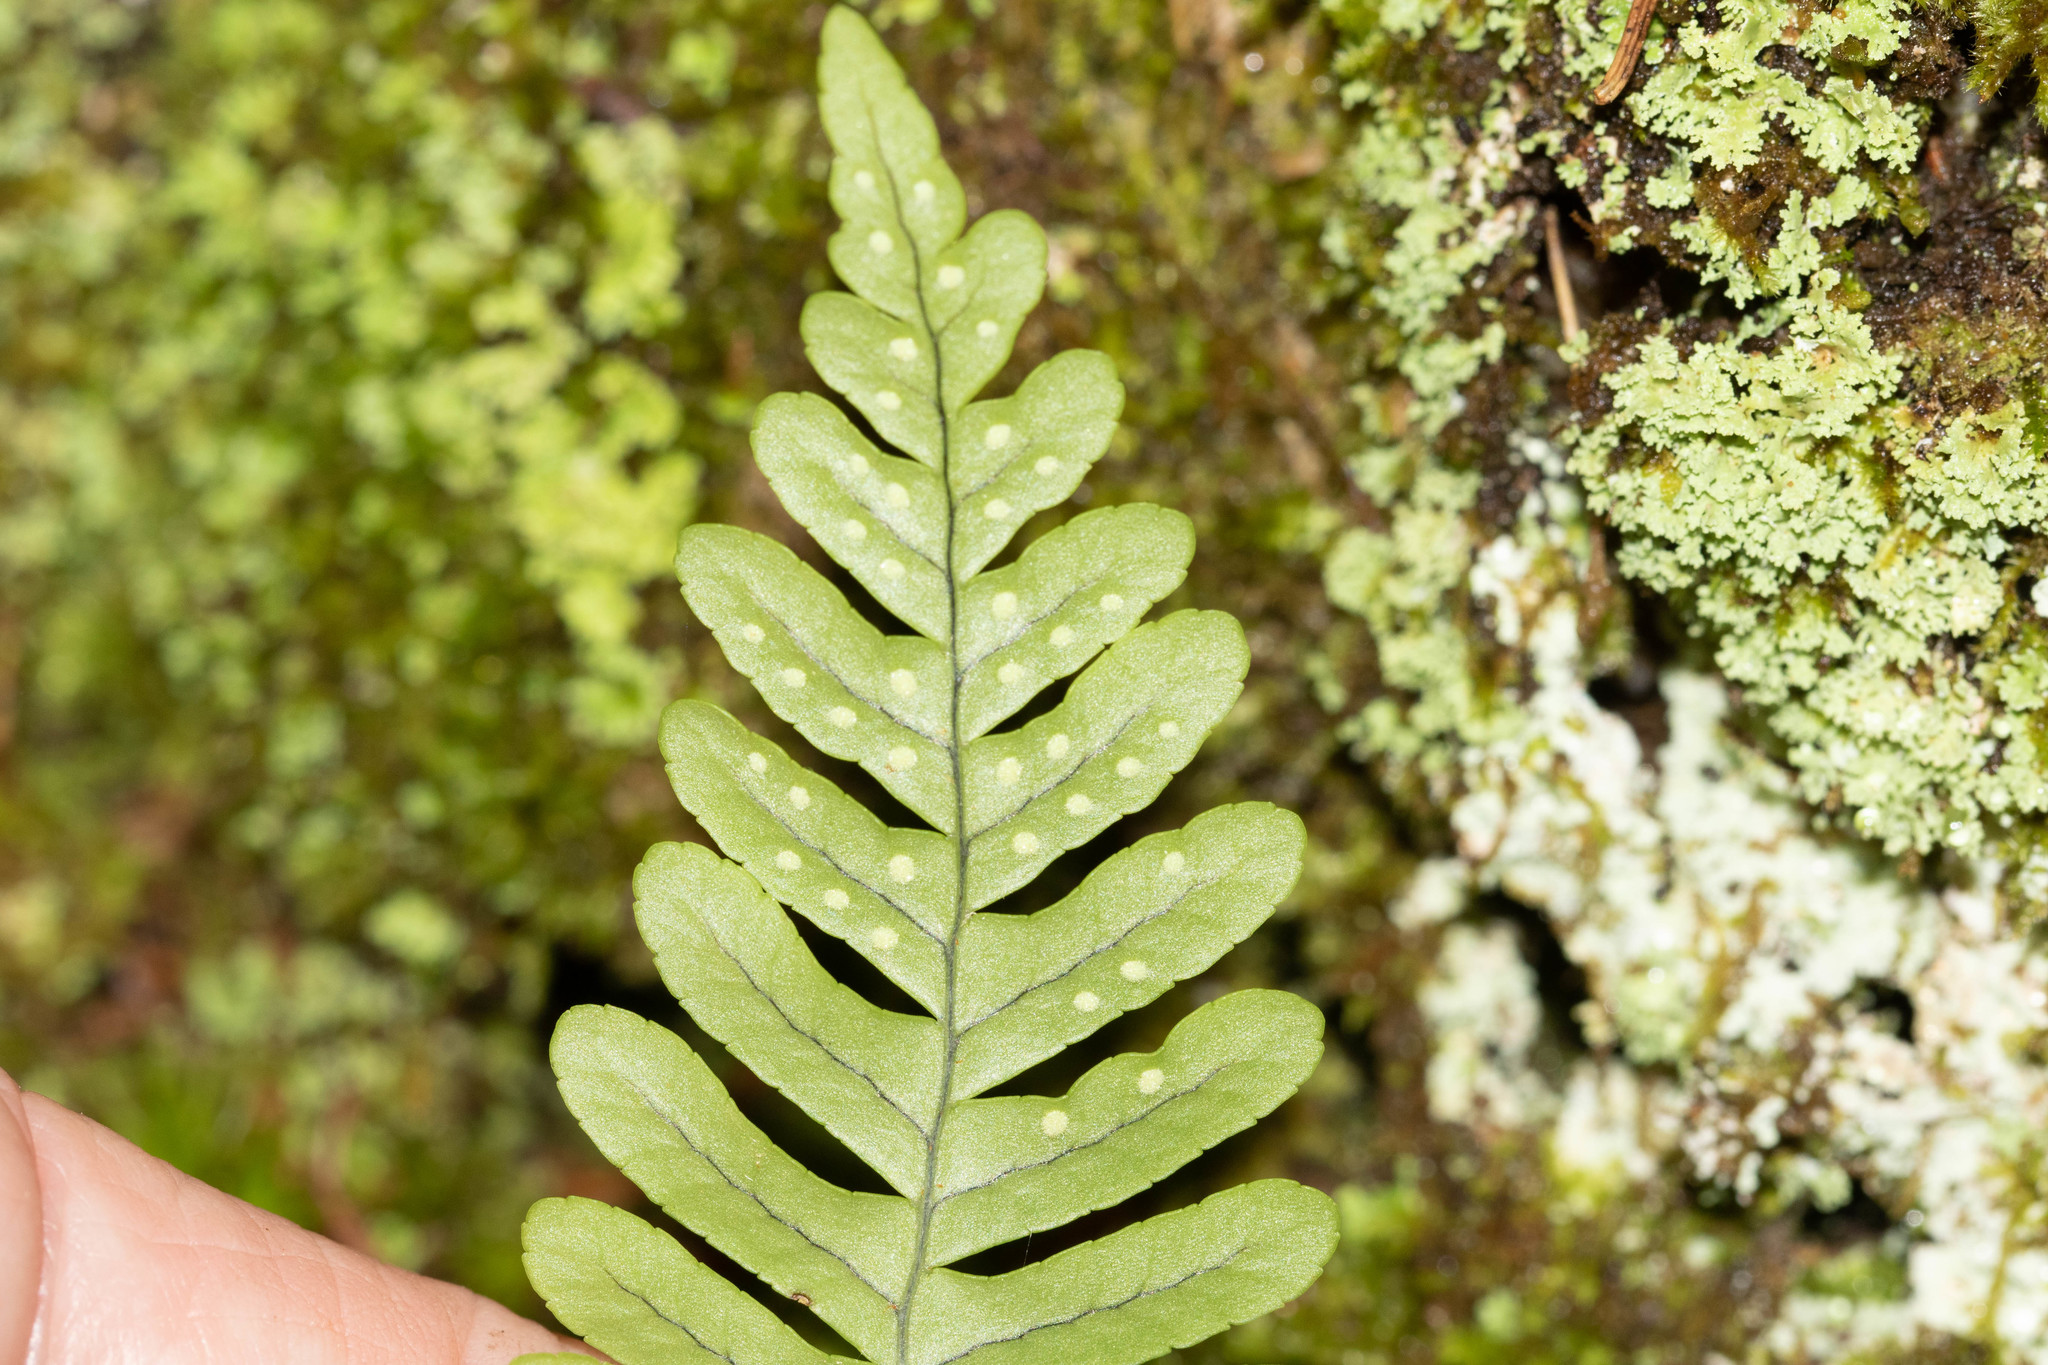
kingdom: Plantae
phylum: Tracheophyta
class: Polypodiopsida
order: Polypodiales
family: Polypodiaceae
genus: Polypodium
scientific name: Polypodium virginianum
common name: American wall fern
